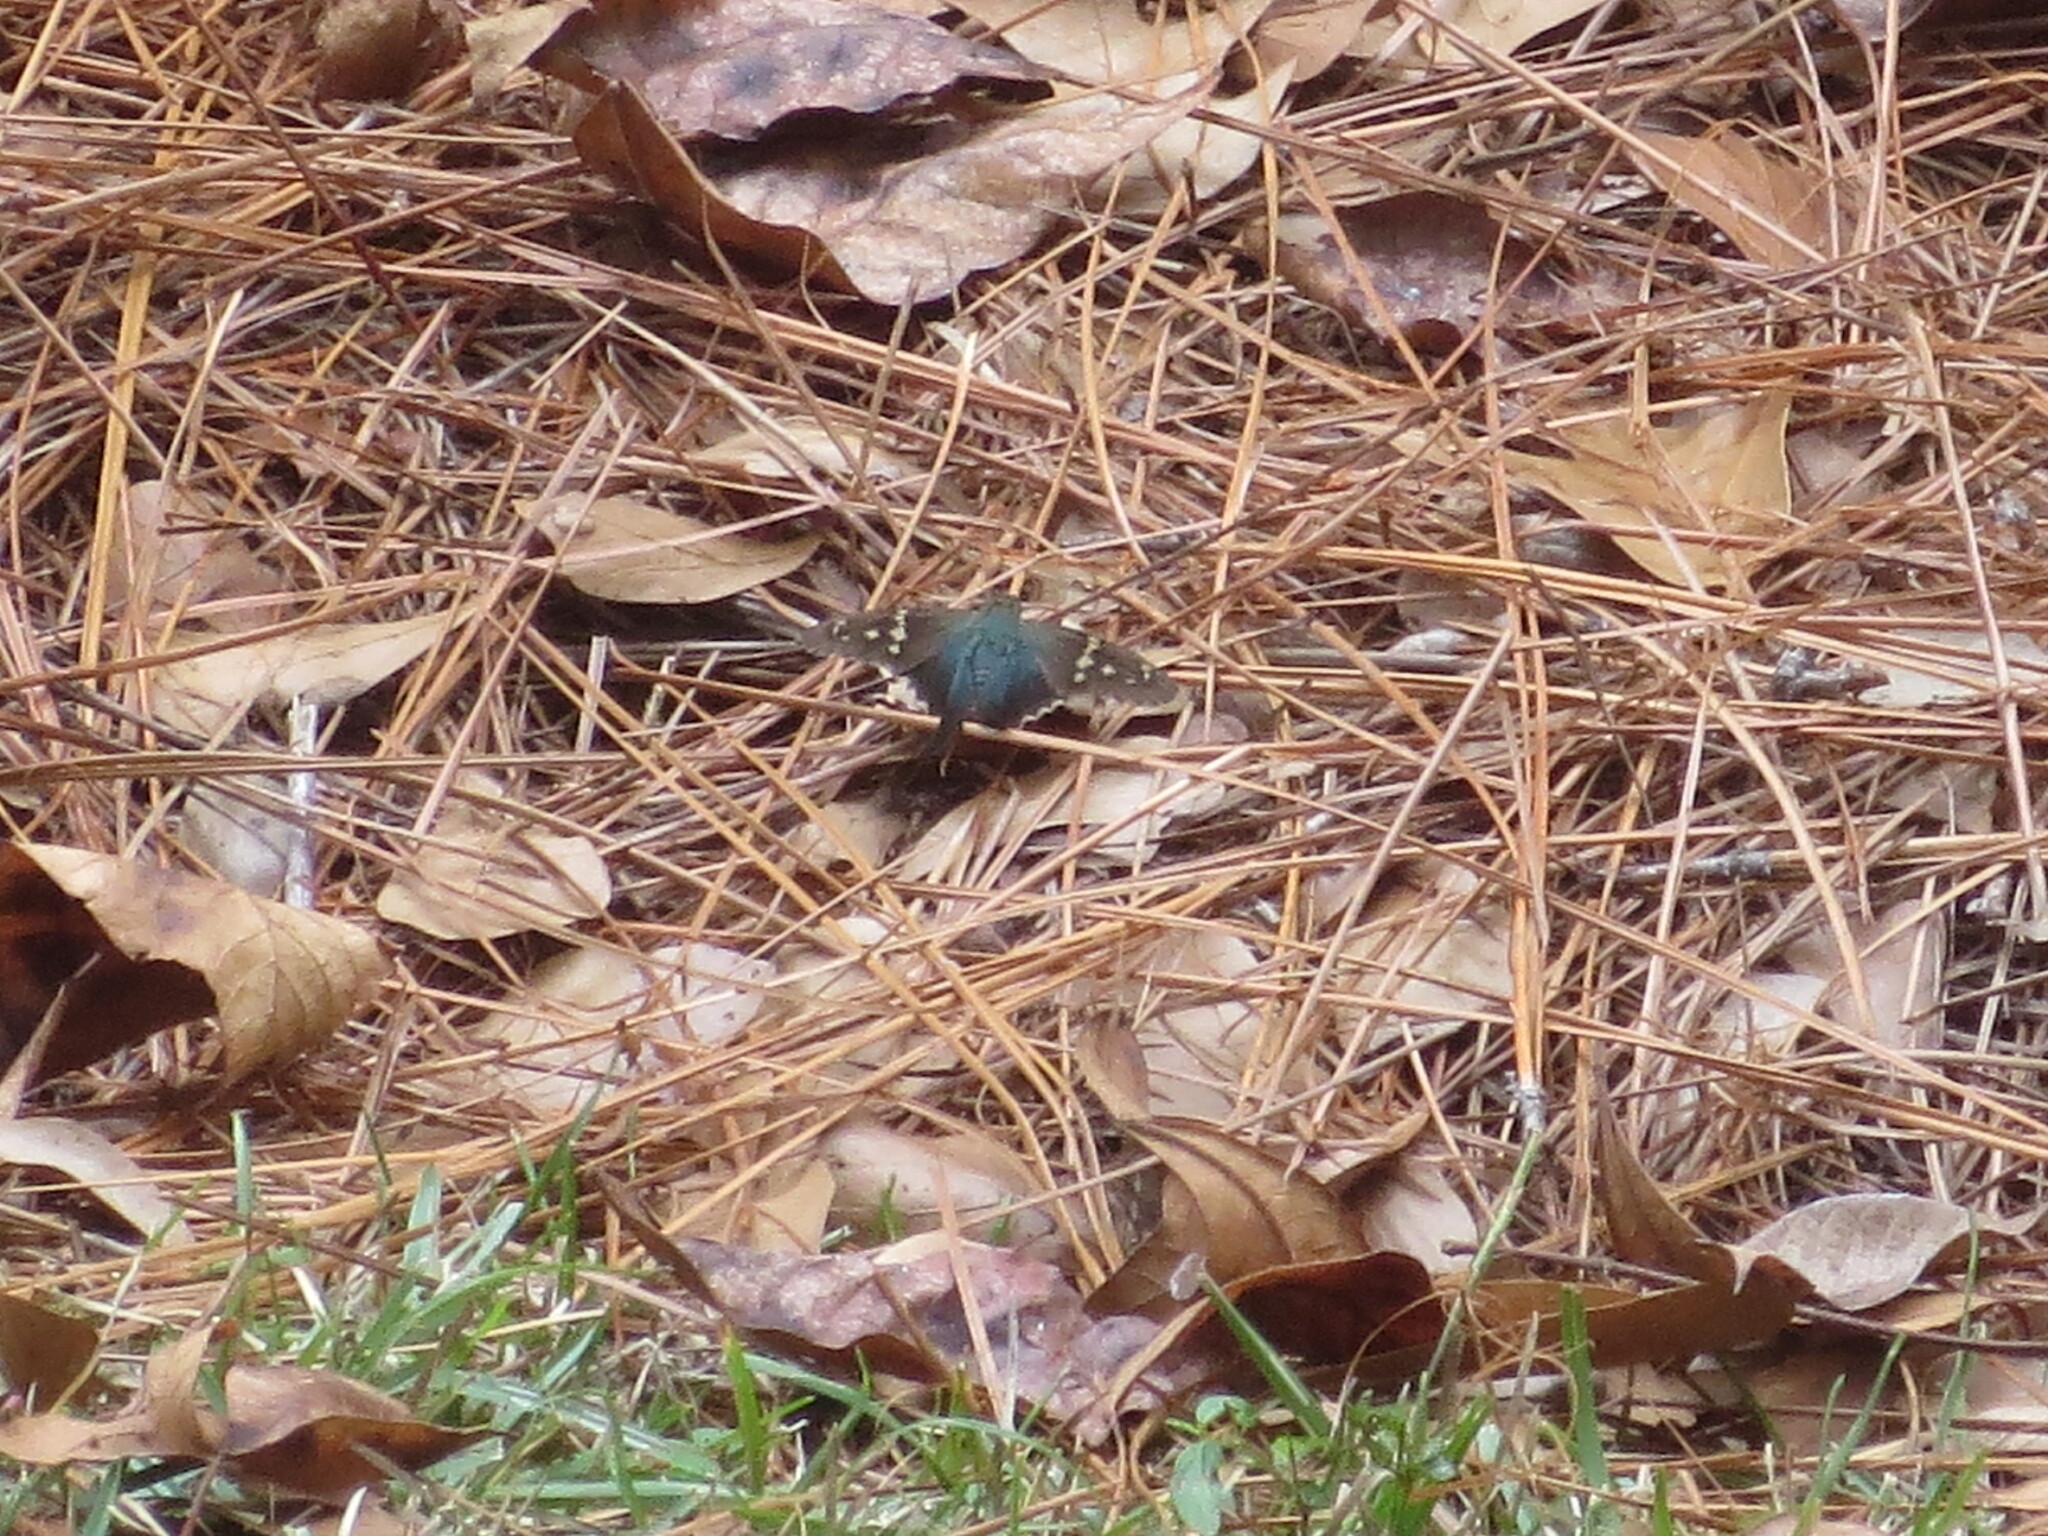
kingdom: Animalia
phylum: Arthropoda
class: Insecta
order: Lepidoptera
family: Hesperiidae
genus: Urbanus
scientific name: Urbanus proteus
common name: Long-tailed skipper
